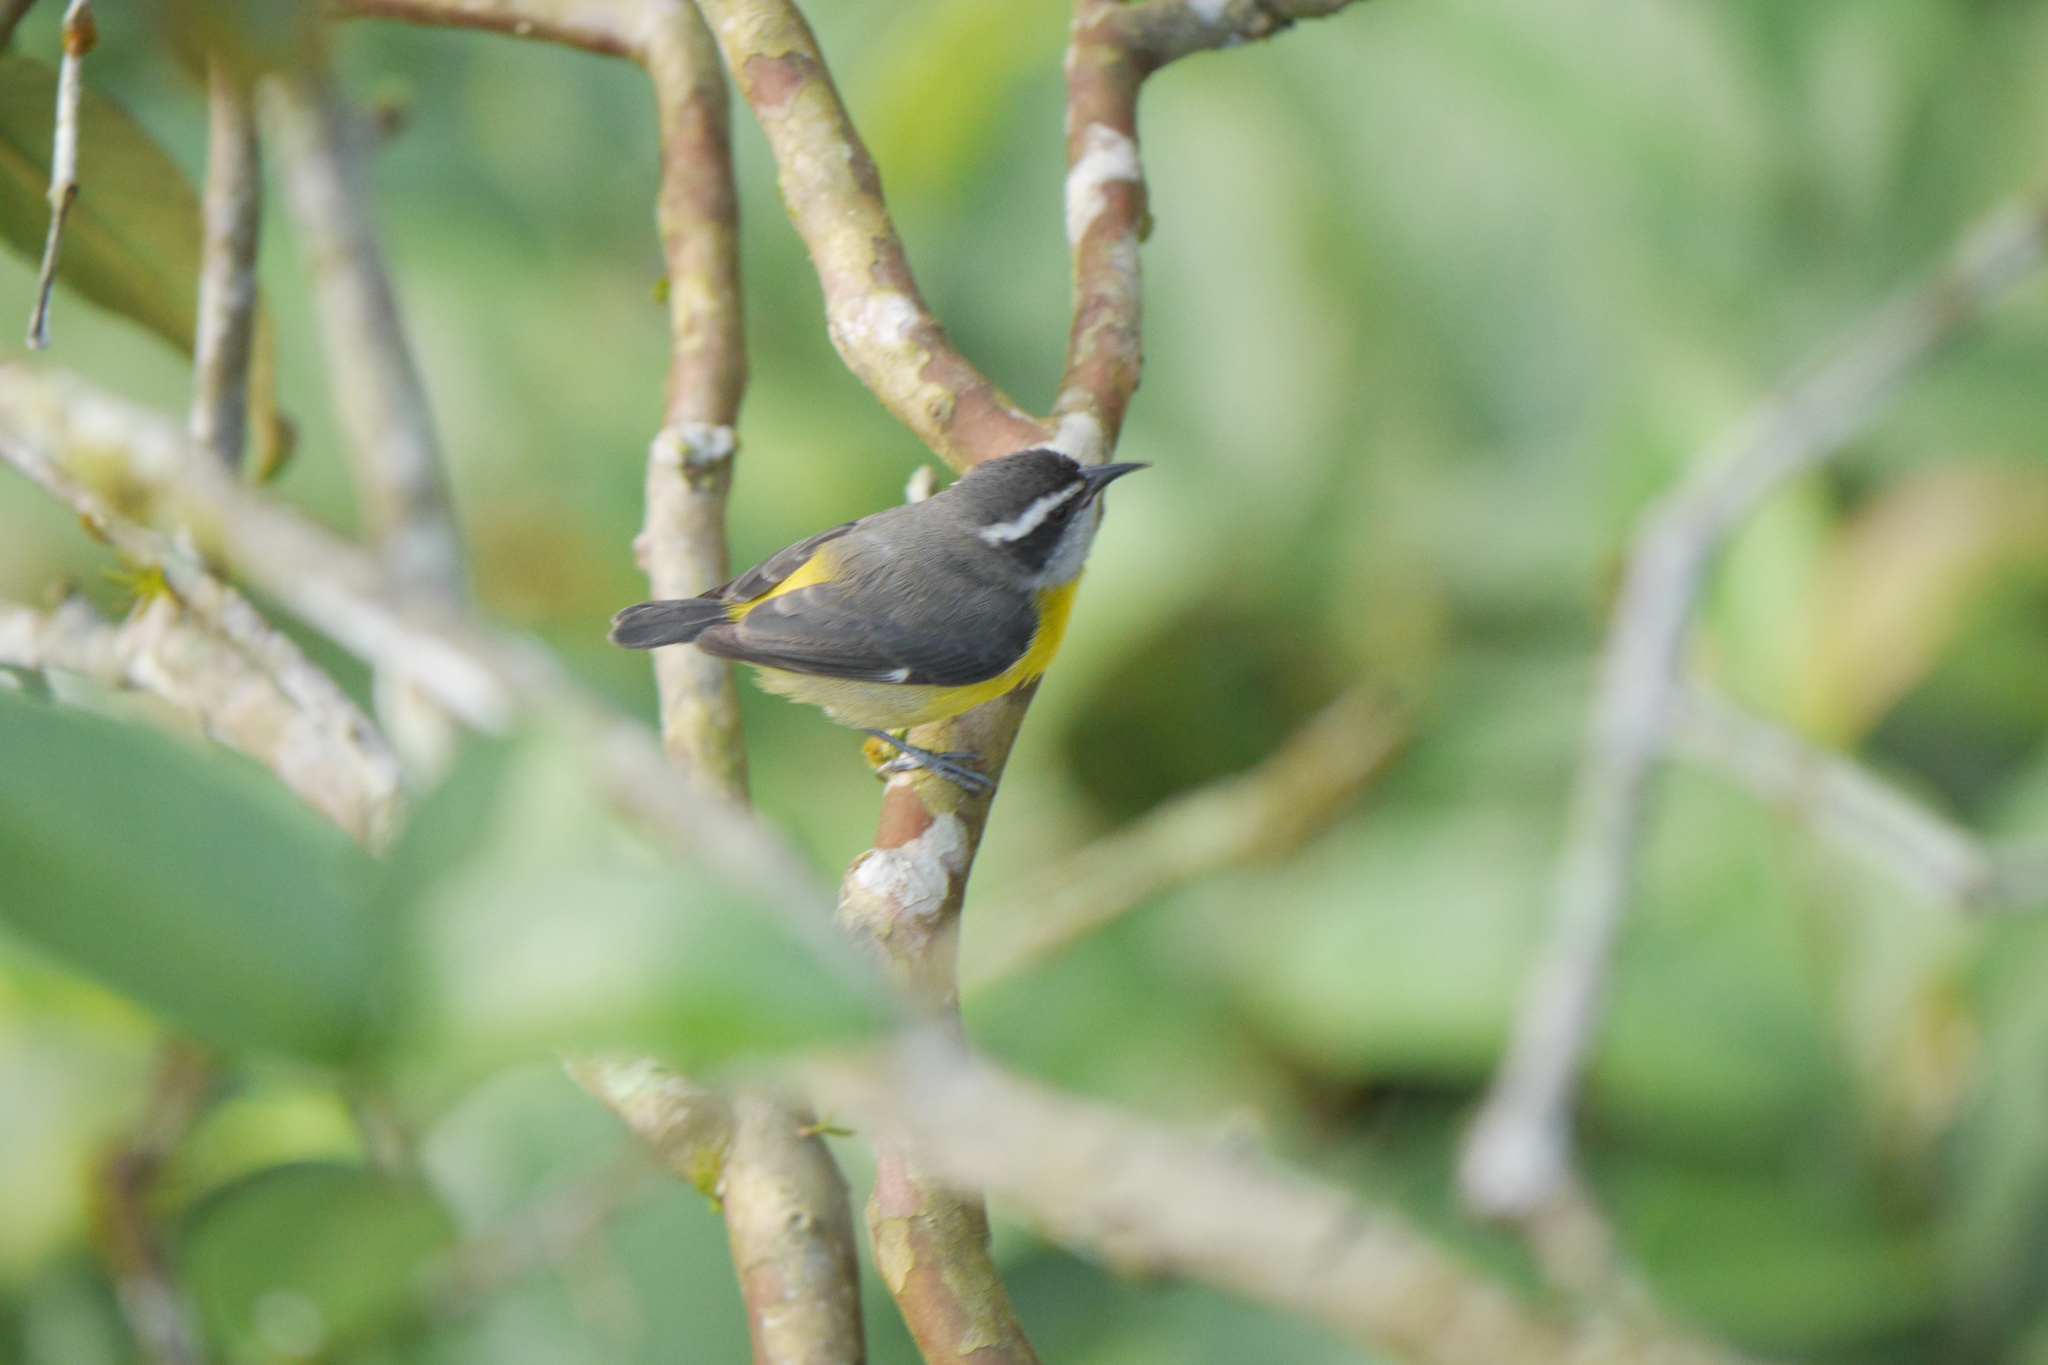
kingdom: Animalia
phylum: Chordata
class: Aves
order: Passeriformes
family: Thraupidae
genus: Coereba
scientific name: Coereba flaveola
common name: Bananaquit
